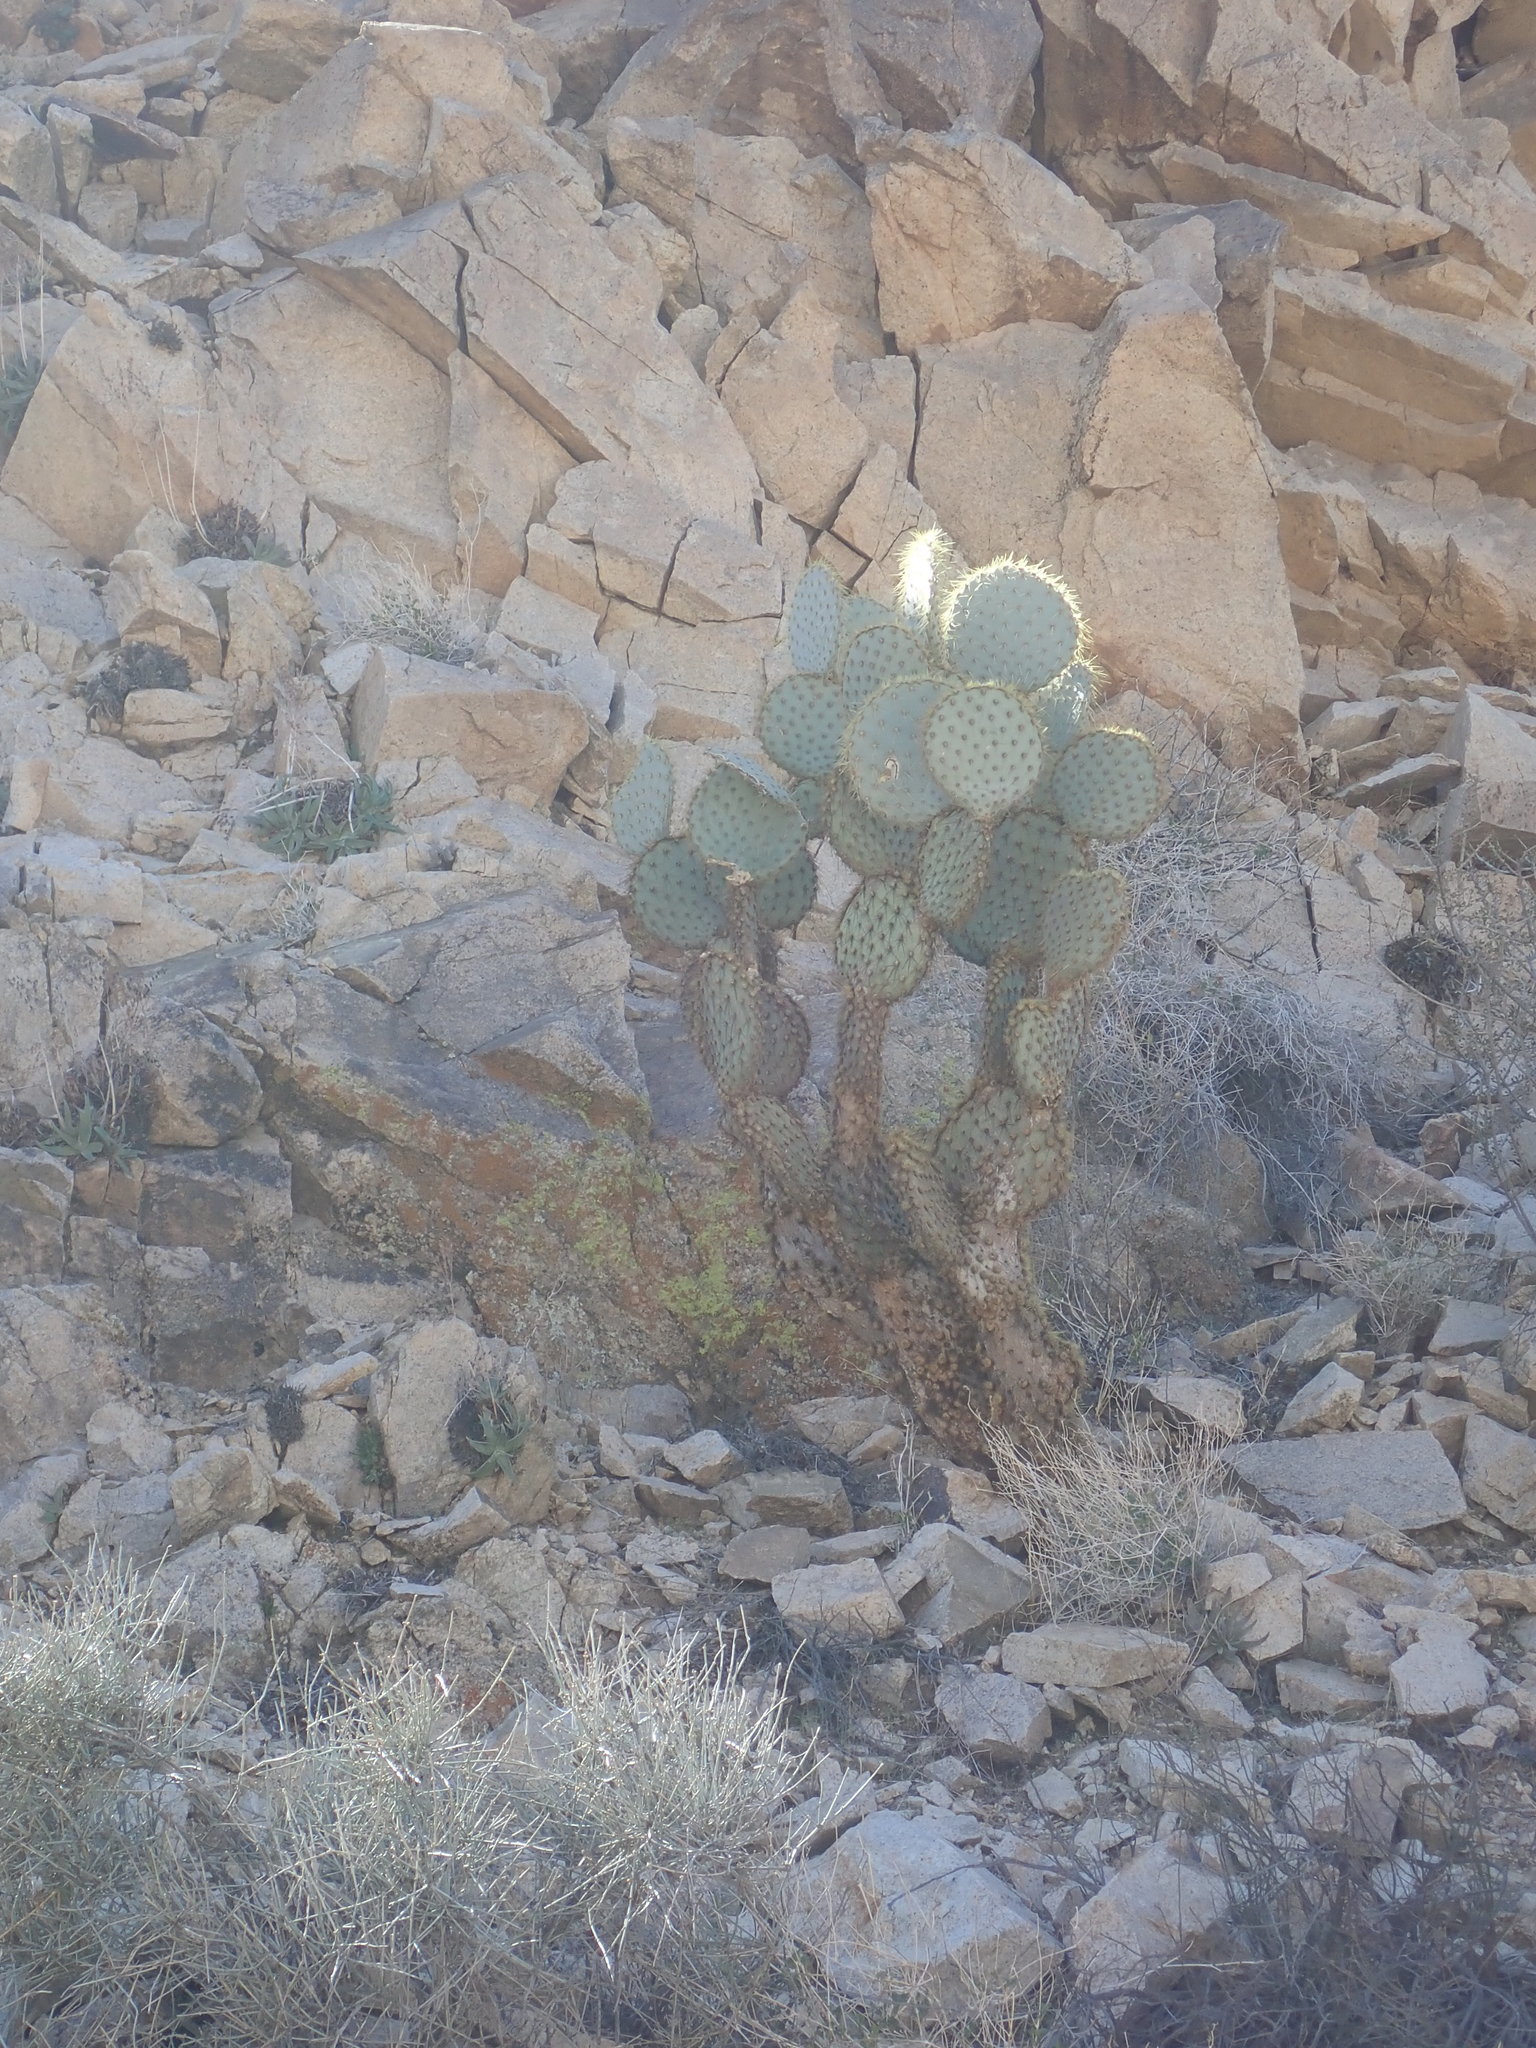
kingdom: Plantae
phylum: Tracheophyta
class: Magnoliopsida
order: Caryophyllales
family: Cactaceae
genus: Opuntia
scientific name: Opuntia chlorotica
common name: Dollar-joint prickly-pear
